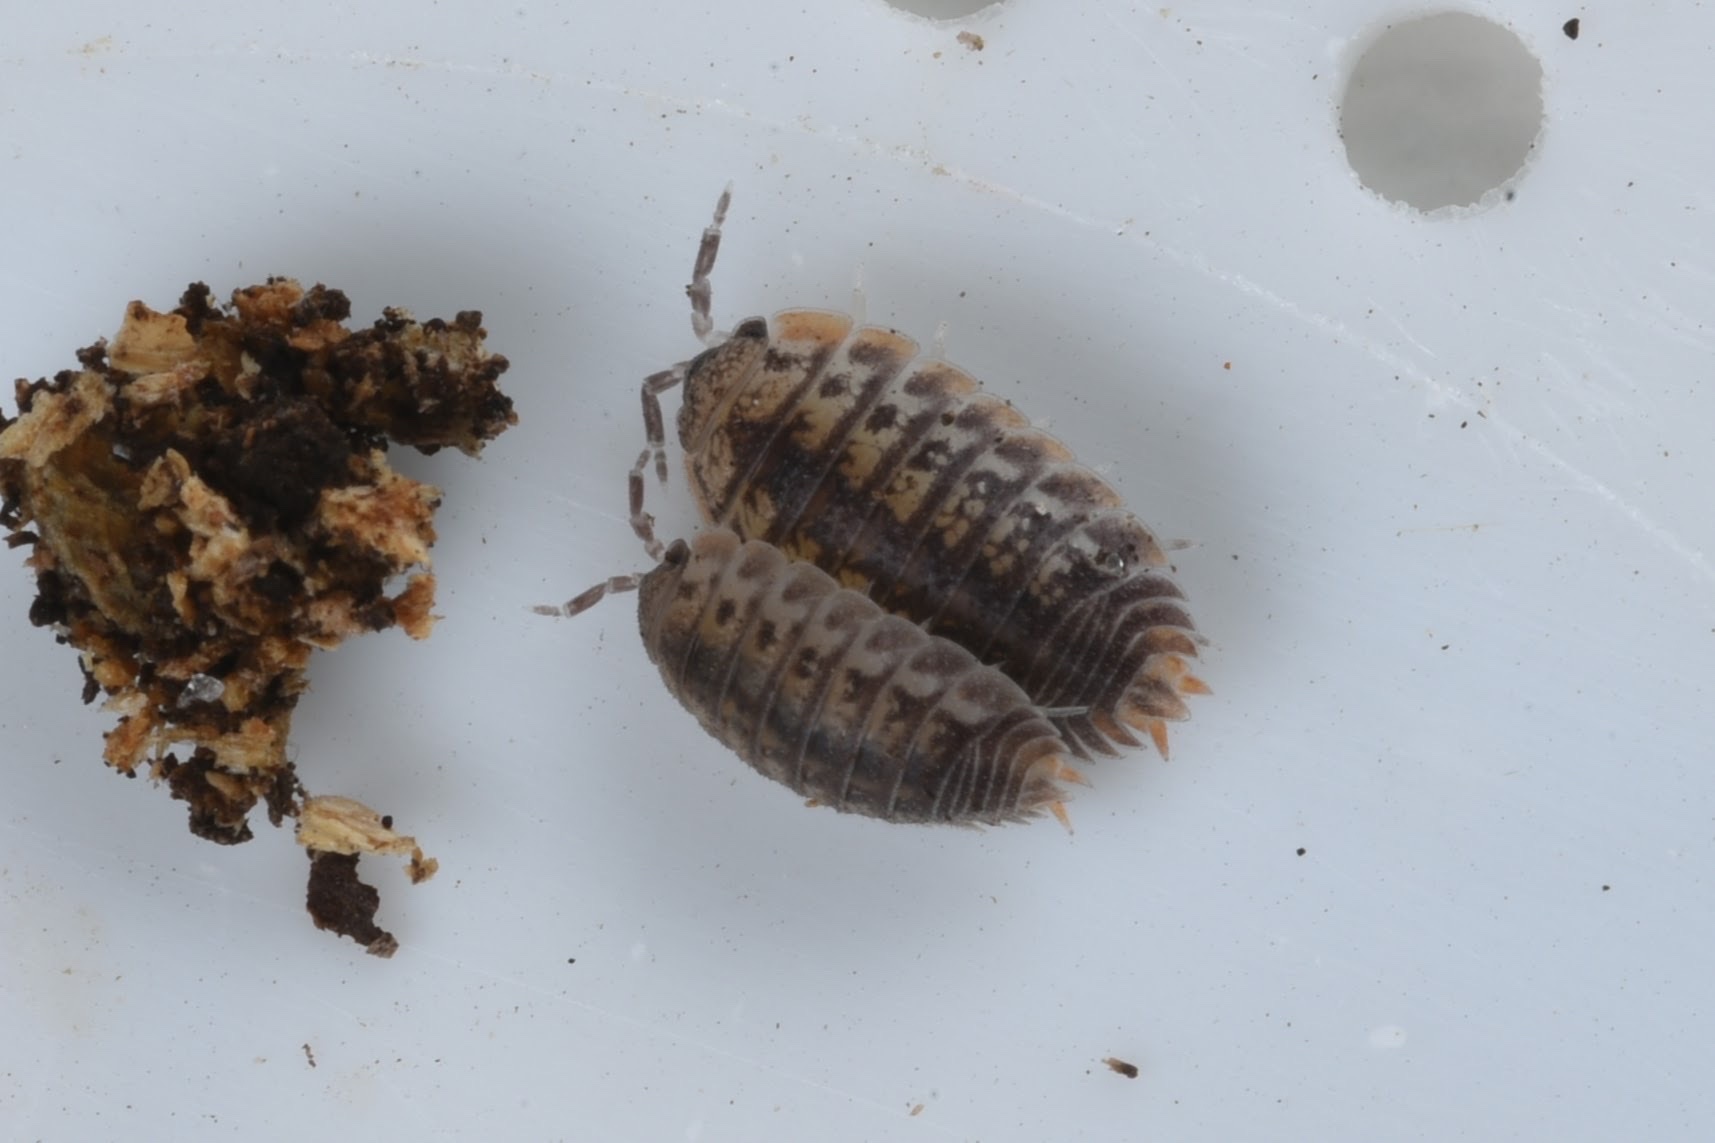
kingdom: Animalia
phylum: Arthropoda
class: Malacostraca
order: Isopoda
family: Porcellionidae
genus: Agabiformius
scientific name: Agabiformius lentus
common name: Pillbug
